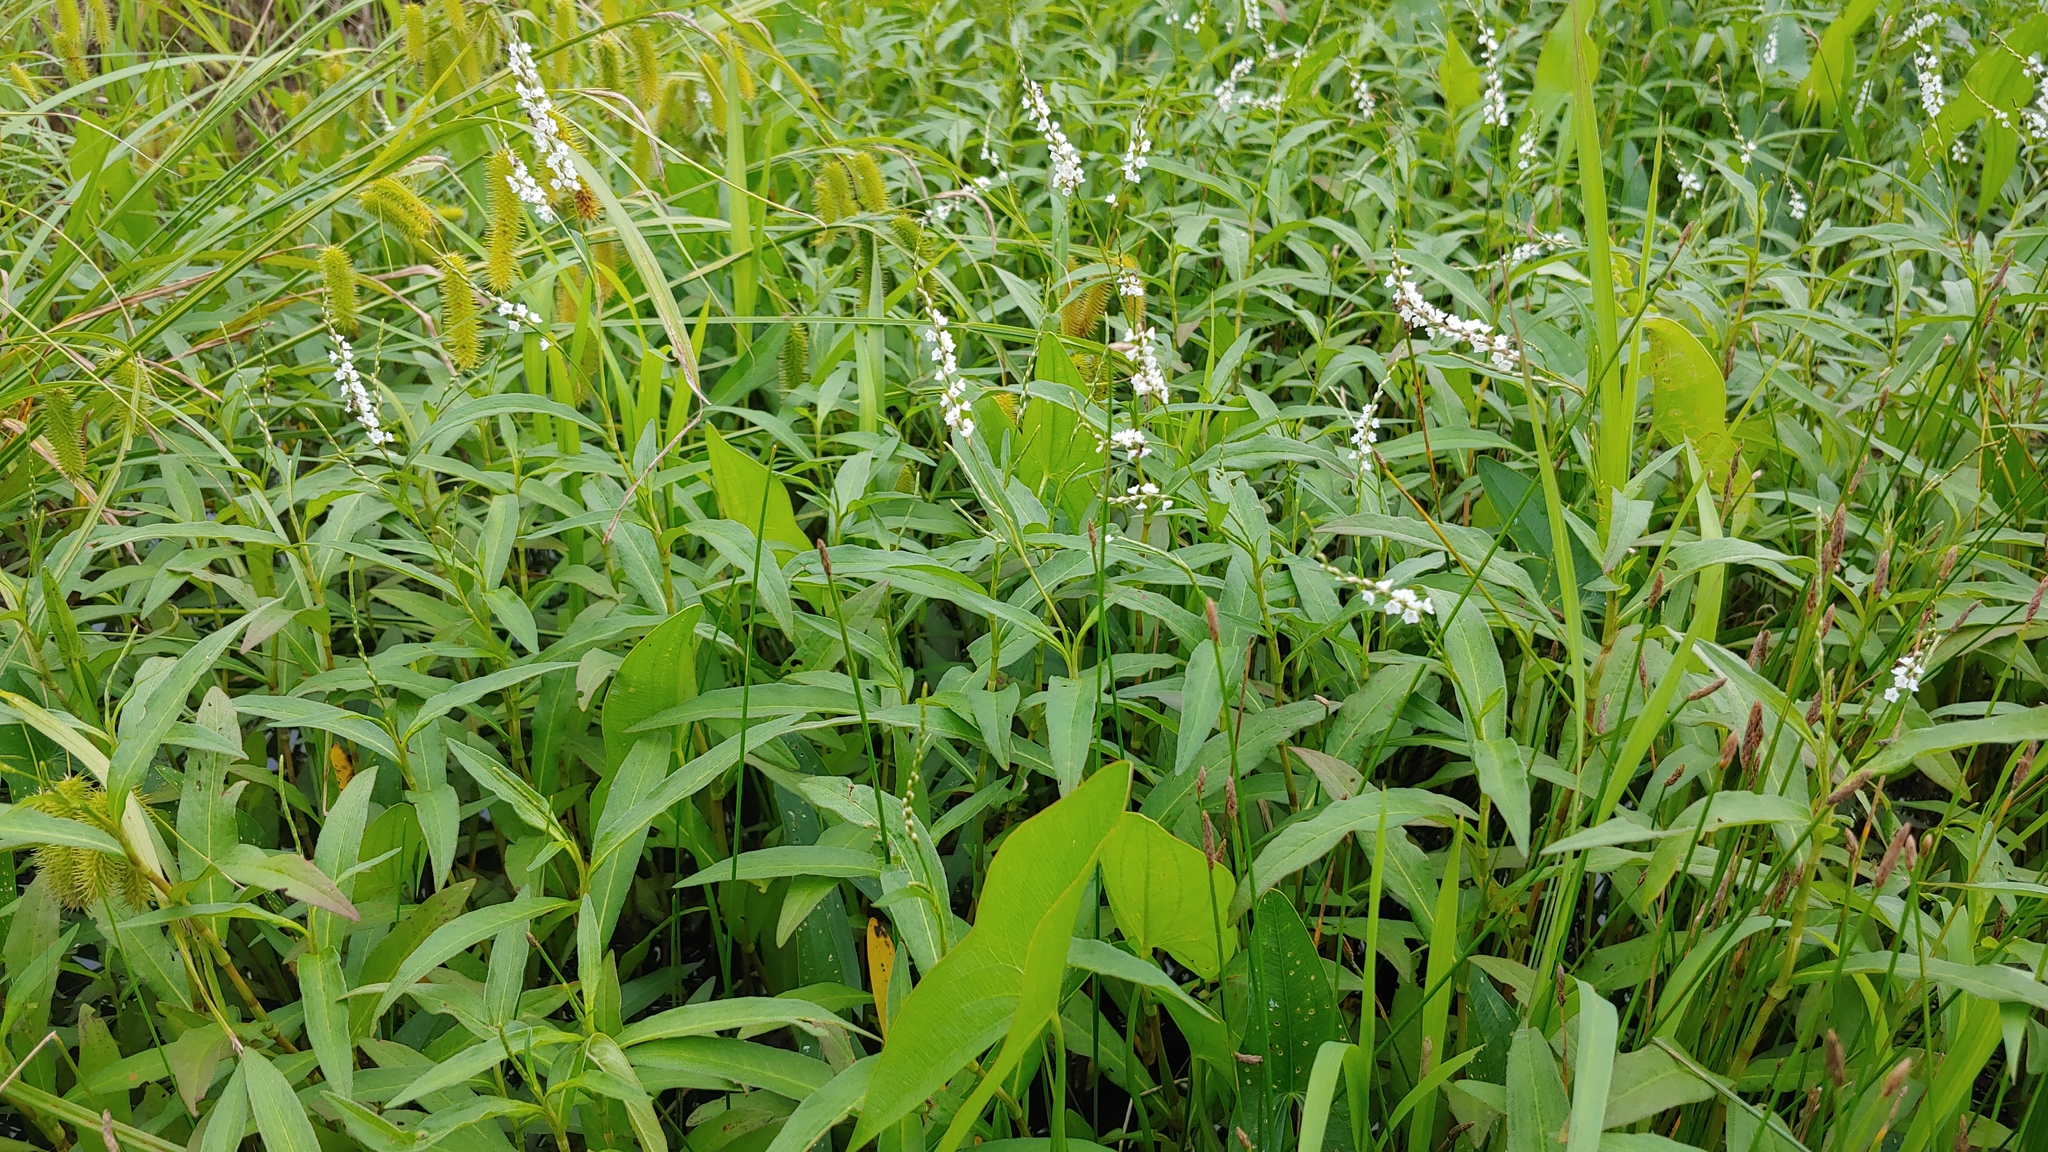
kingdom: Plantae
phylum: Tracheophyta
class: Magnoliopsida
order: Caryophyllales
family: Polygonaceae
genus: Persicaria
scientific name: Persicaria hydropiperoides
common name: Swamp smartweed
